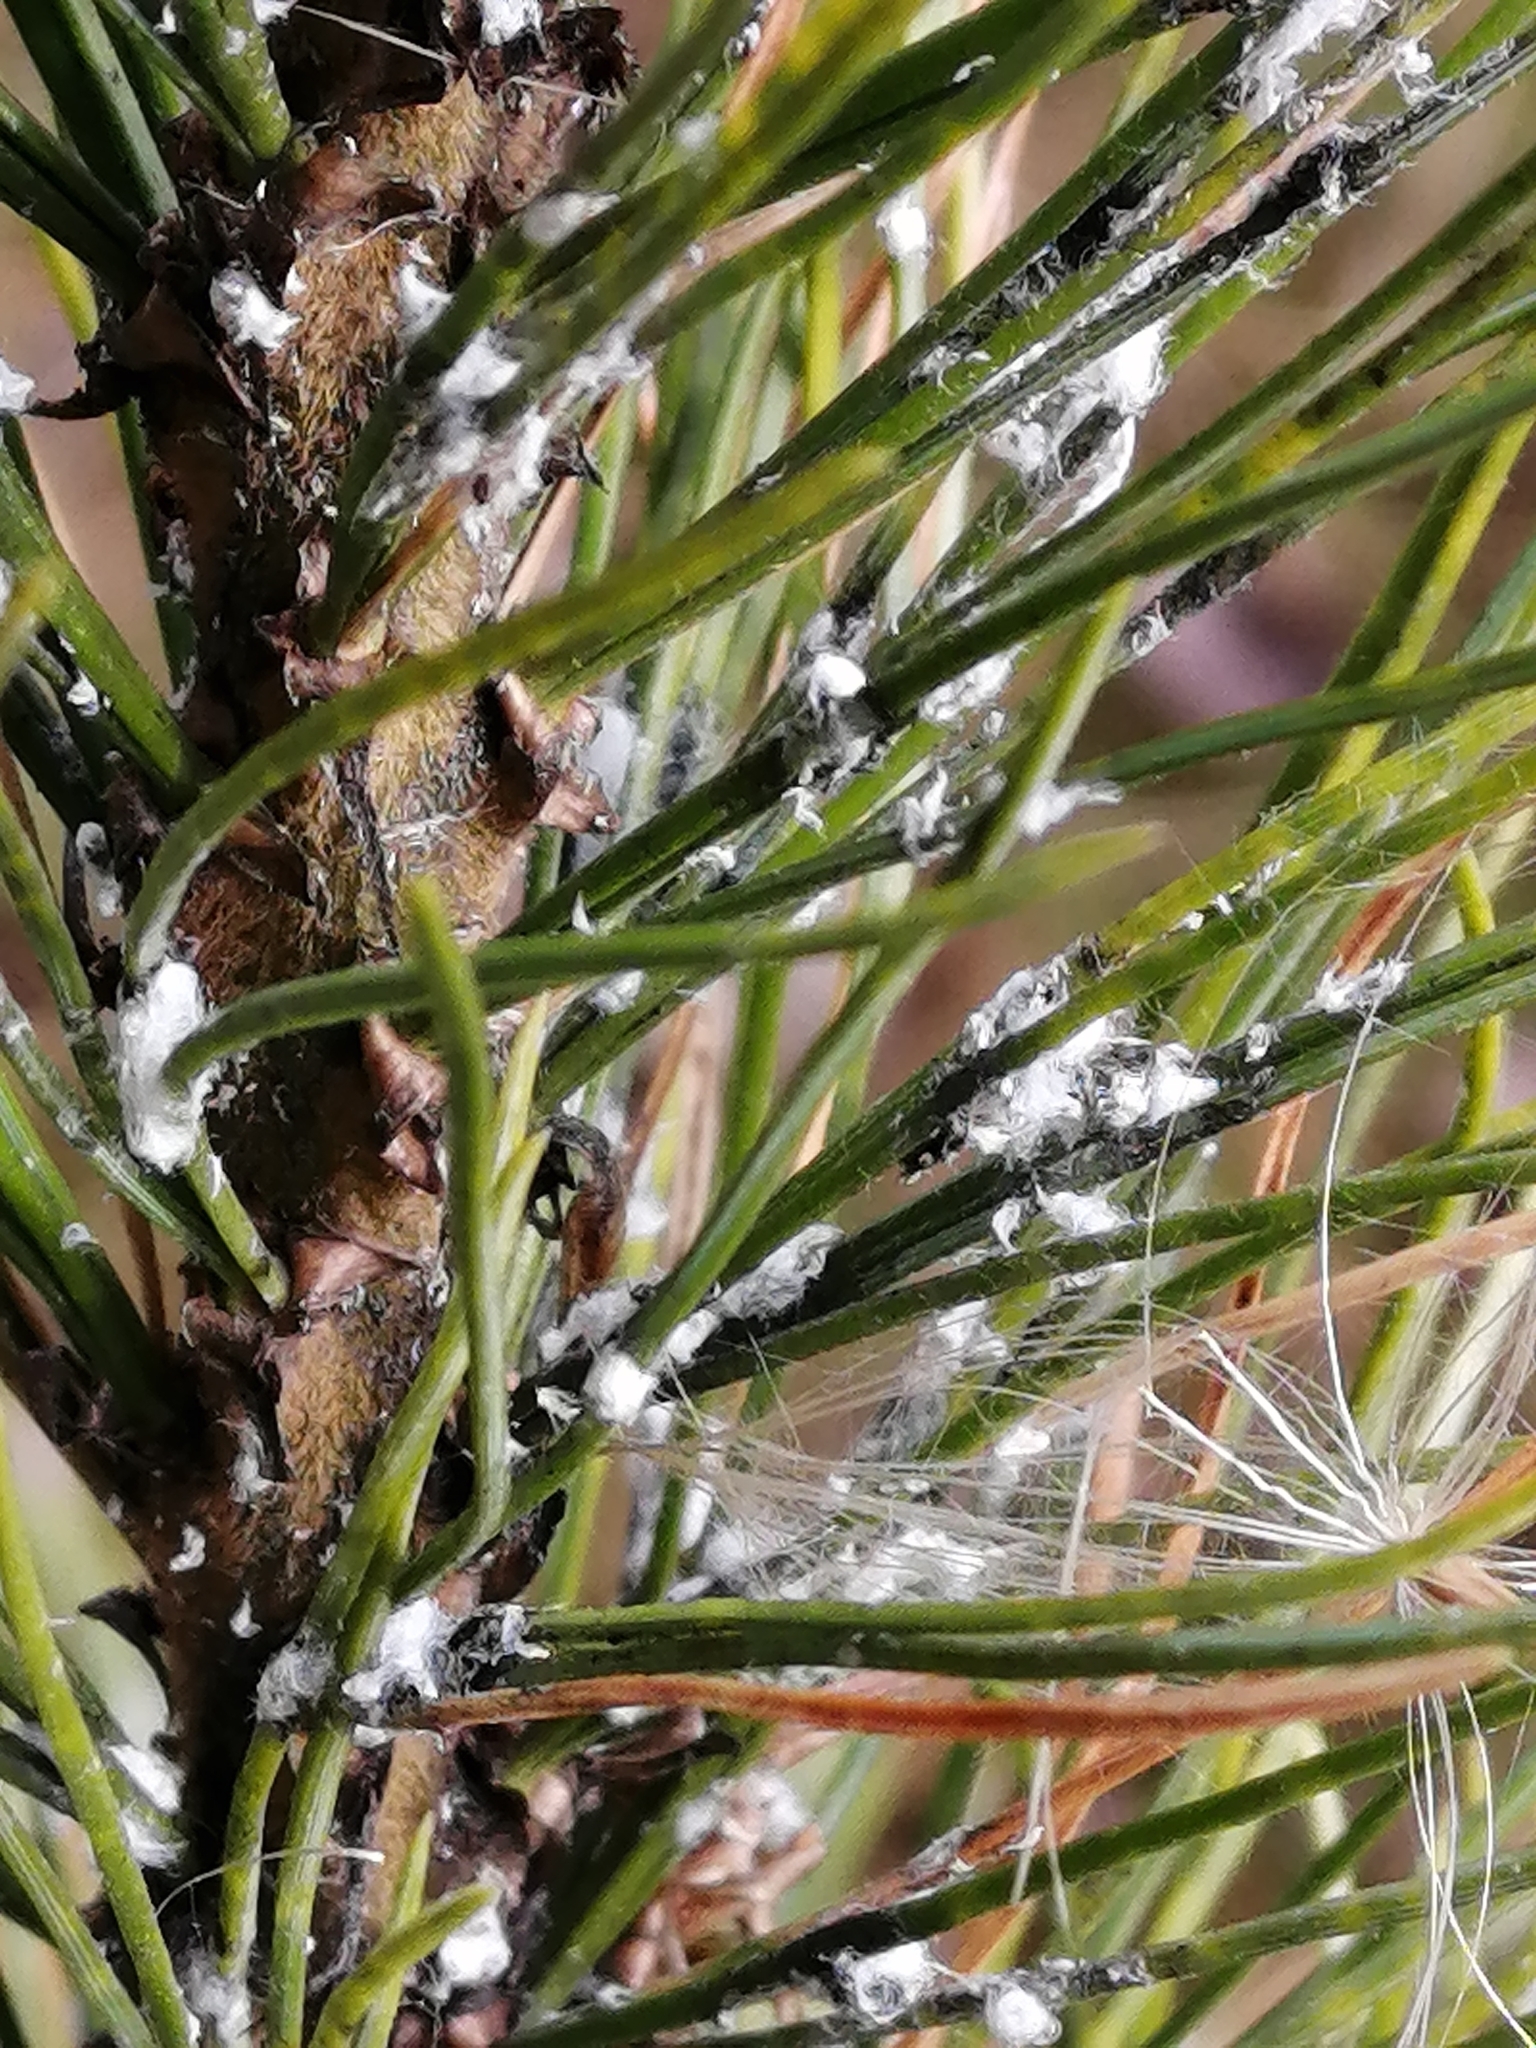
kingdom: Animalia
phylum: Arthropoda
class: Insecta
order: Hemiptera
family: Adelgidae
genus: Pineus
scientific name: Pineus cembrae
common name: Adelgid
